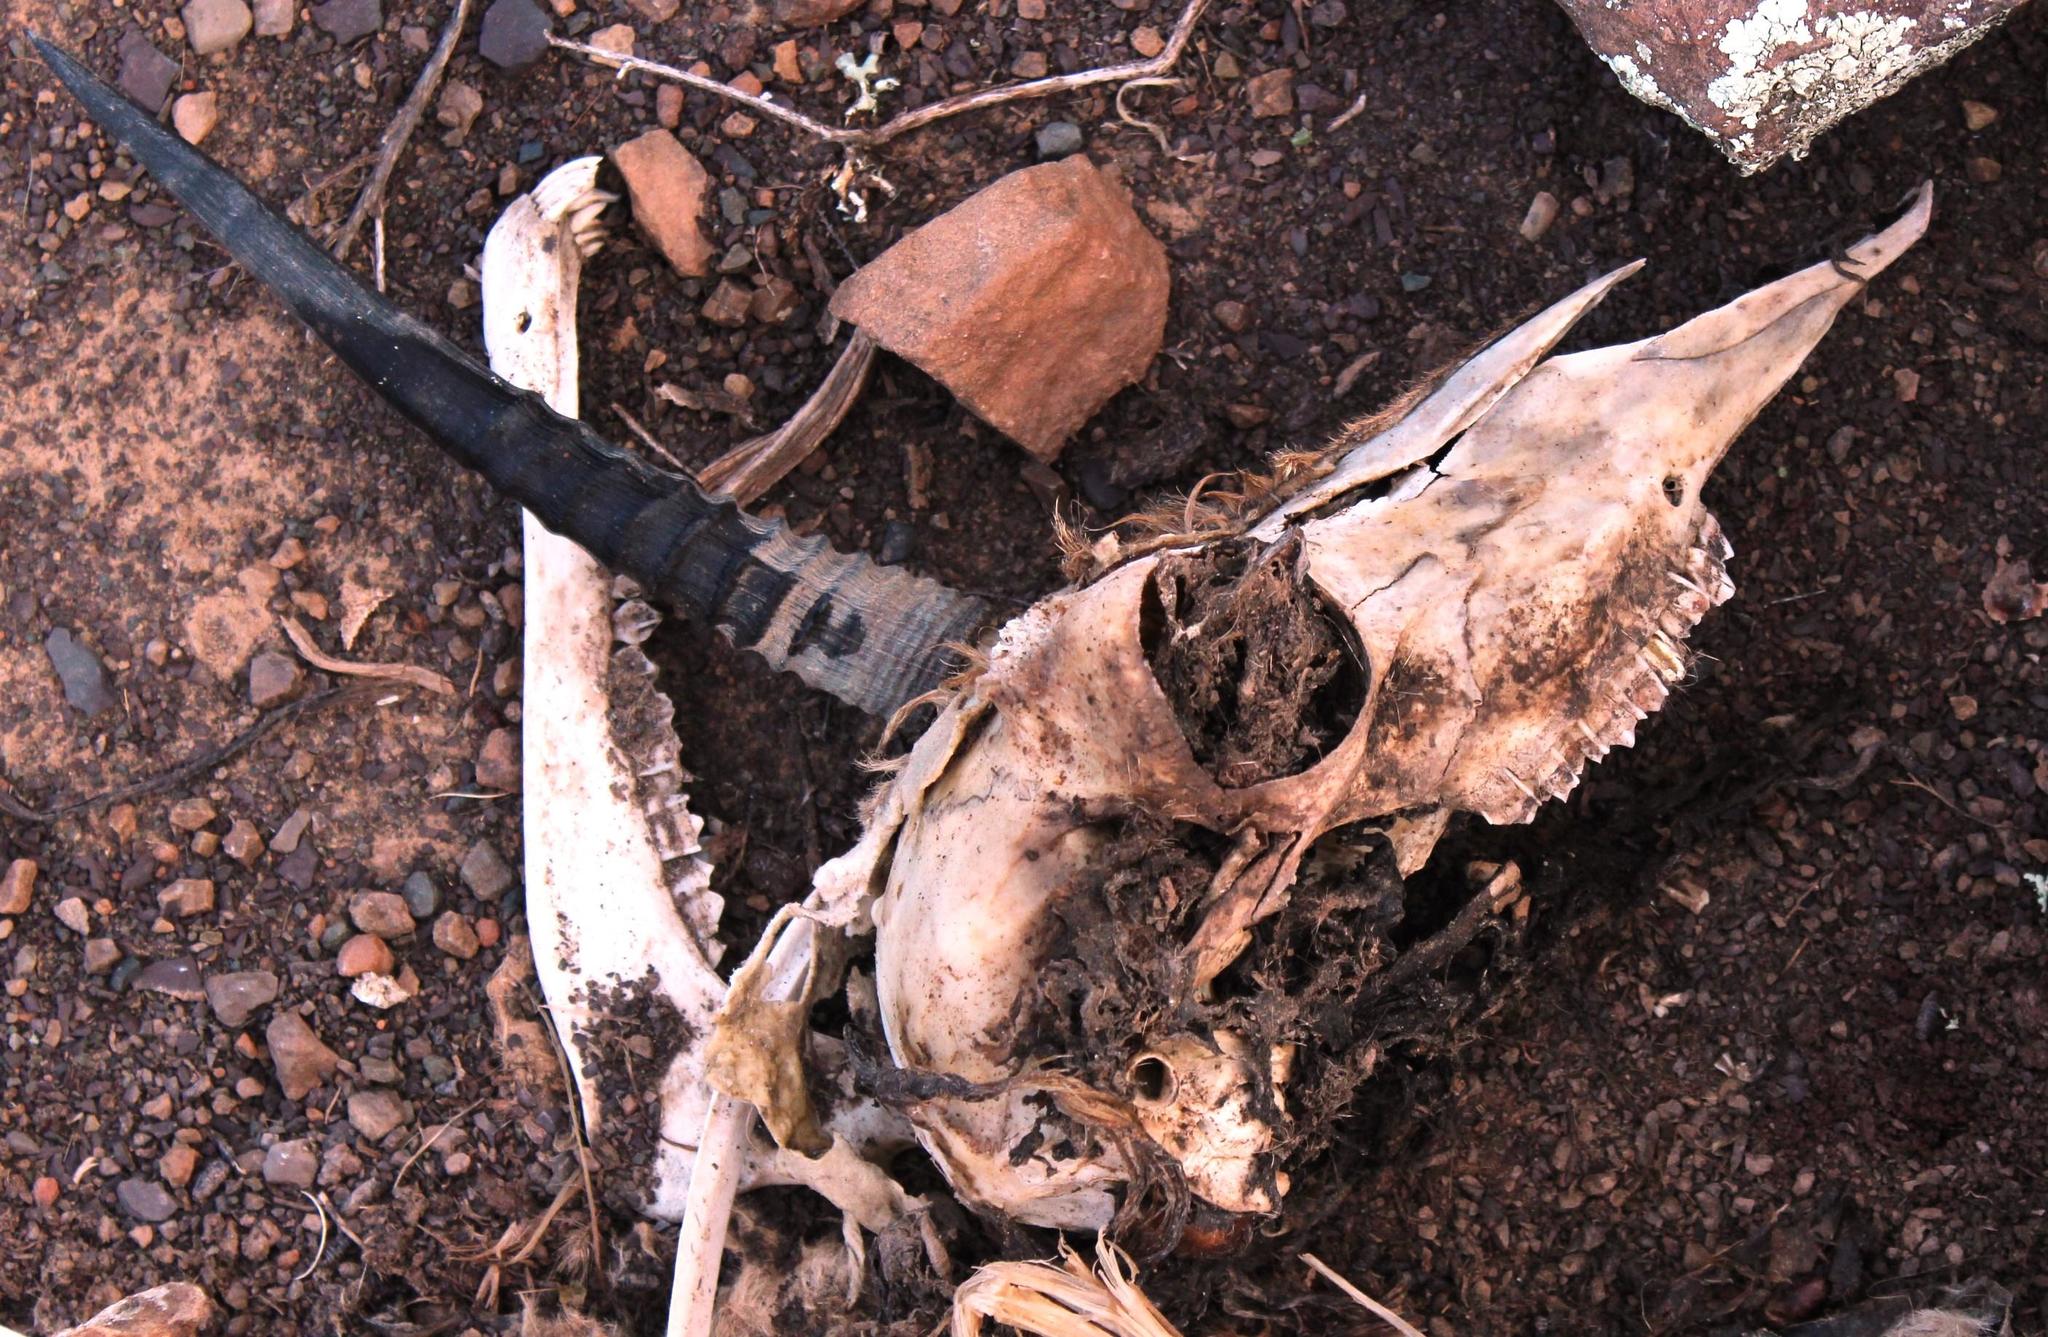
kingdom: Animalia
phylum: Chordata
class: Mammalia
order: Artiodactyla
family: Bovidae
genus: Pelea
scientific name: Pelea capreolus
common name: Common rhebok
